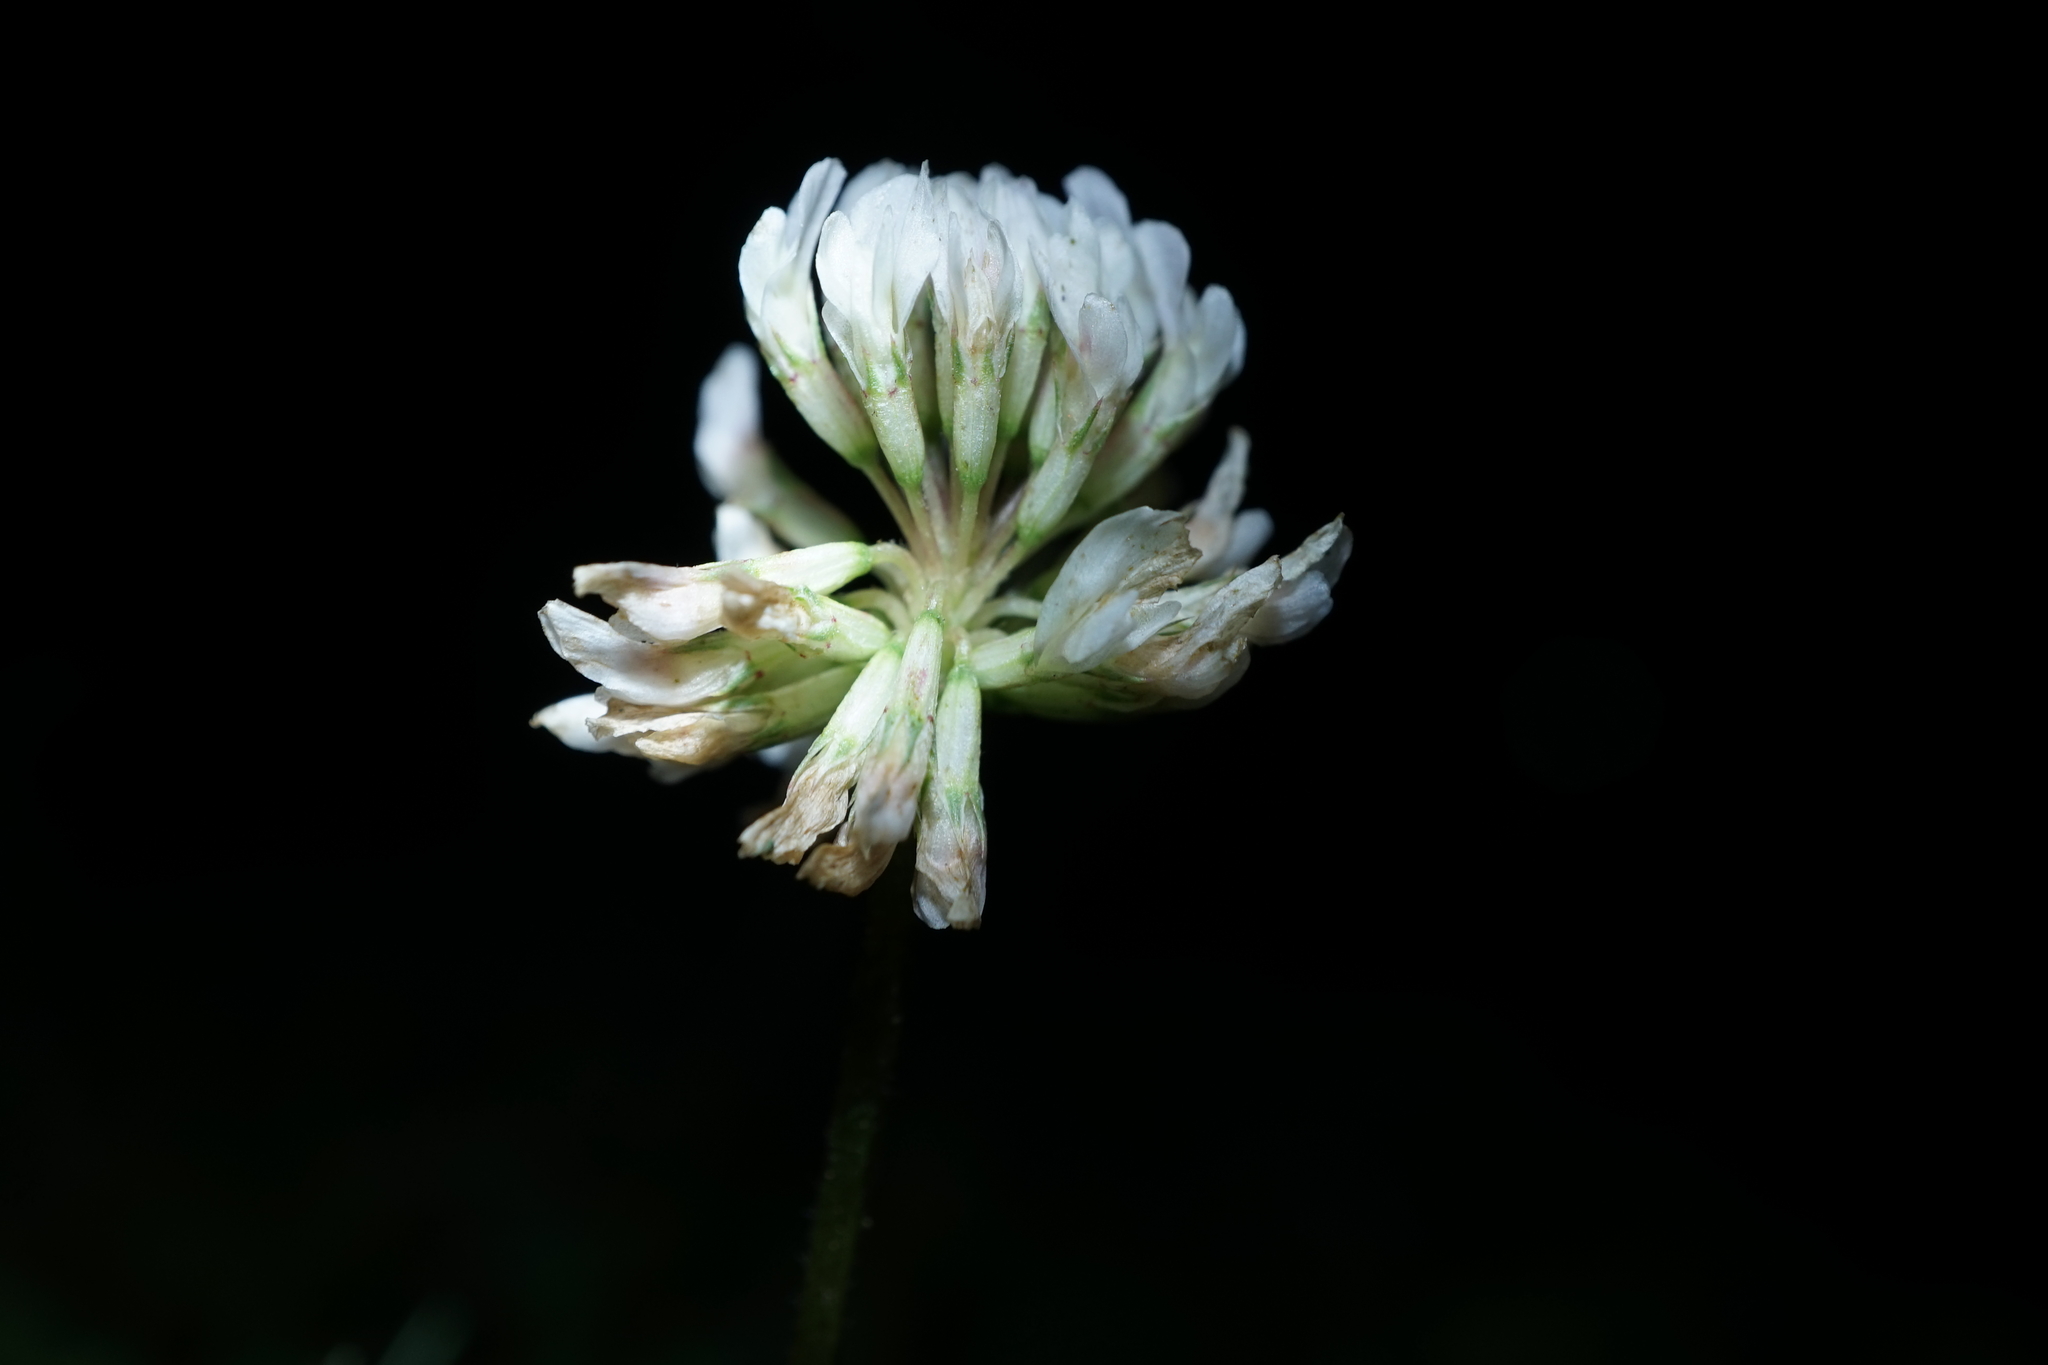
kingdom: Plantae
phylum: Tracheophyta
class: Magnoliopsida
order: Fabales
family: Fabaceae
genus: Trifolium
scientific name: Trifolium repens
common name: White clover
